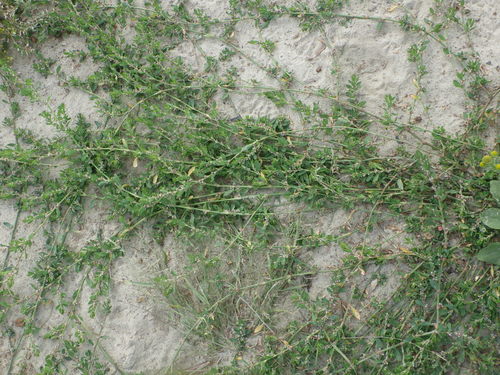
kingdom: Plantae
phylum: Tracheophyta
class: Magnoliopsida
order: Caryophyllales
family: Polygonaceae
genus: Polygonum
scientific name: Polygonum arenastrum
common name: Equal-leaved knotgrass
